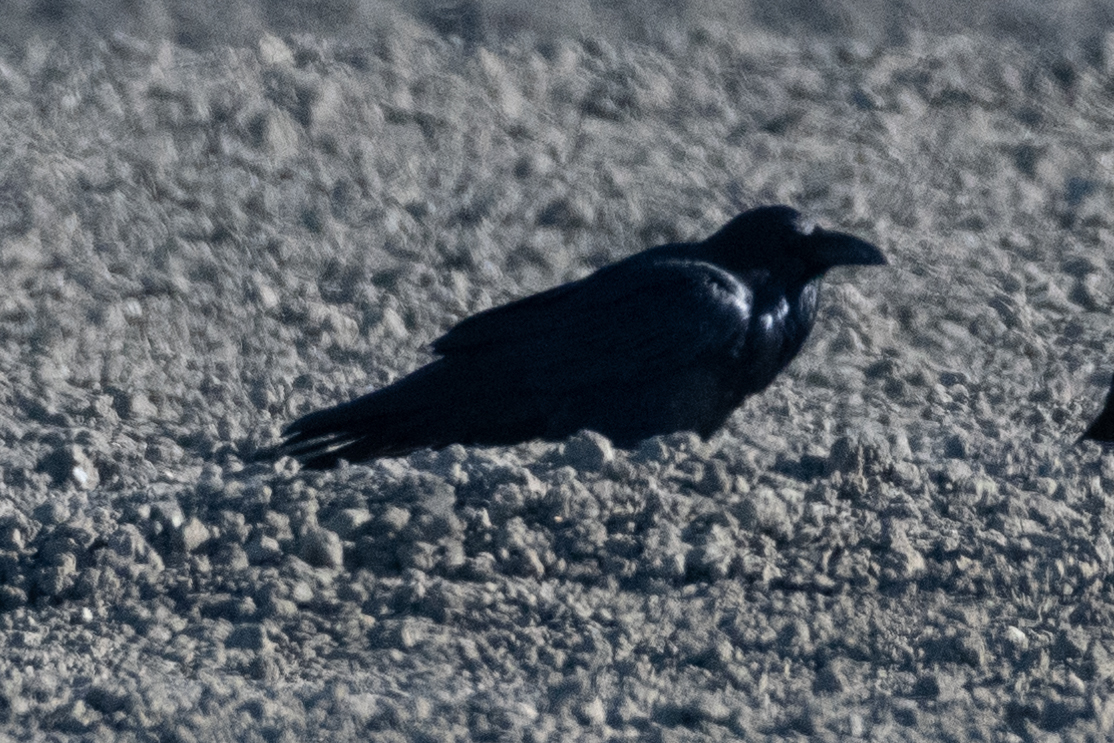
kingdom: Animalia
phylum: Chordata
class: Aves
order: Passeriformes
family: Corvidae
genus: Corvus
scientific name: Corvus corax
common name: Common raven
